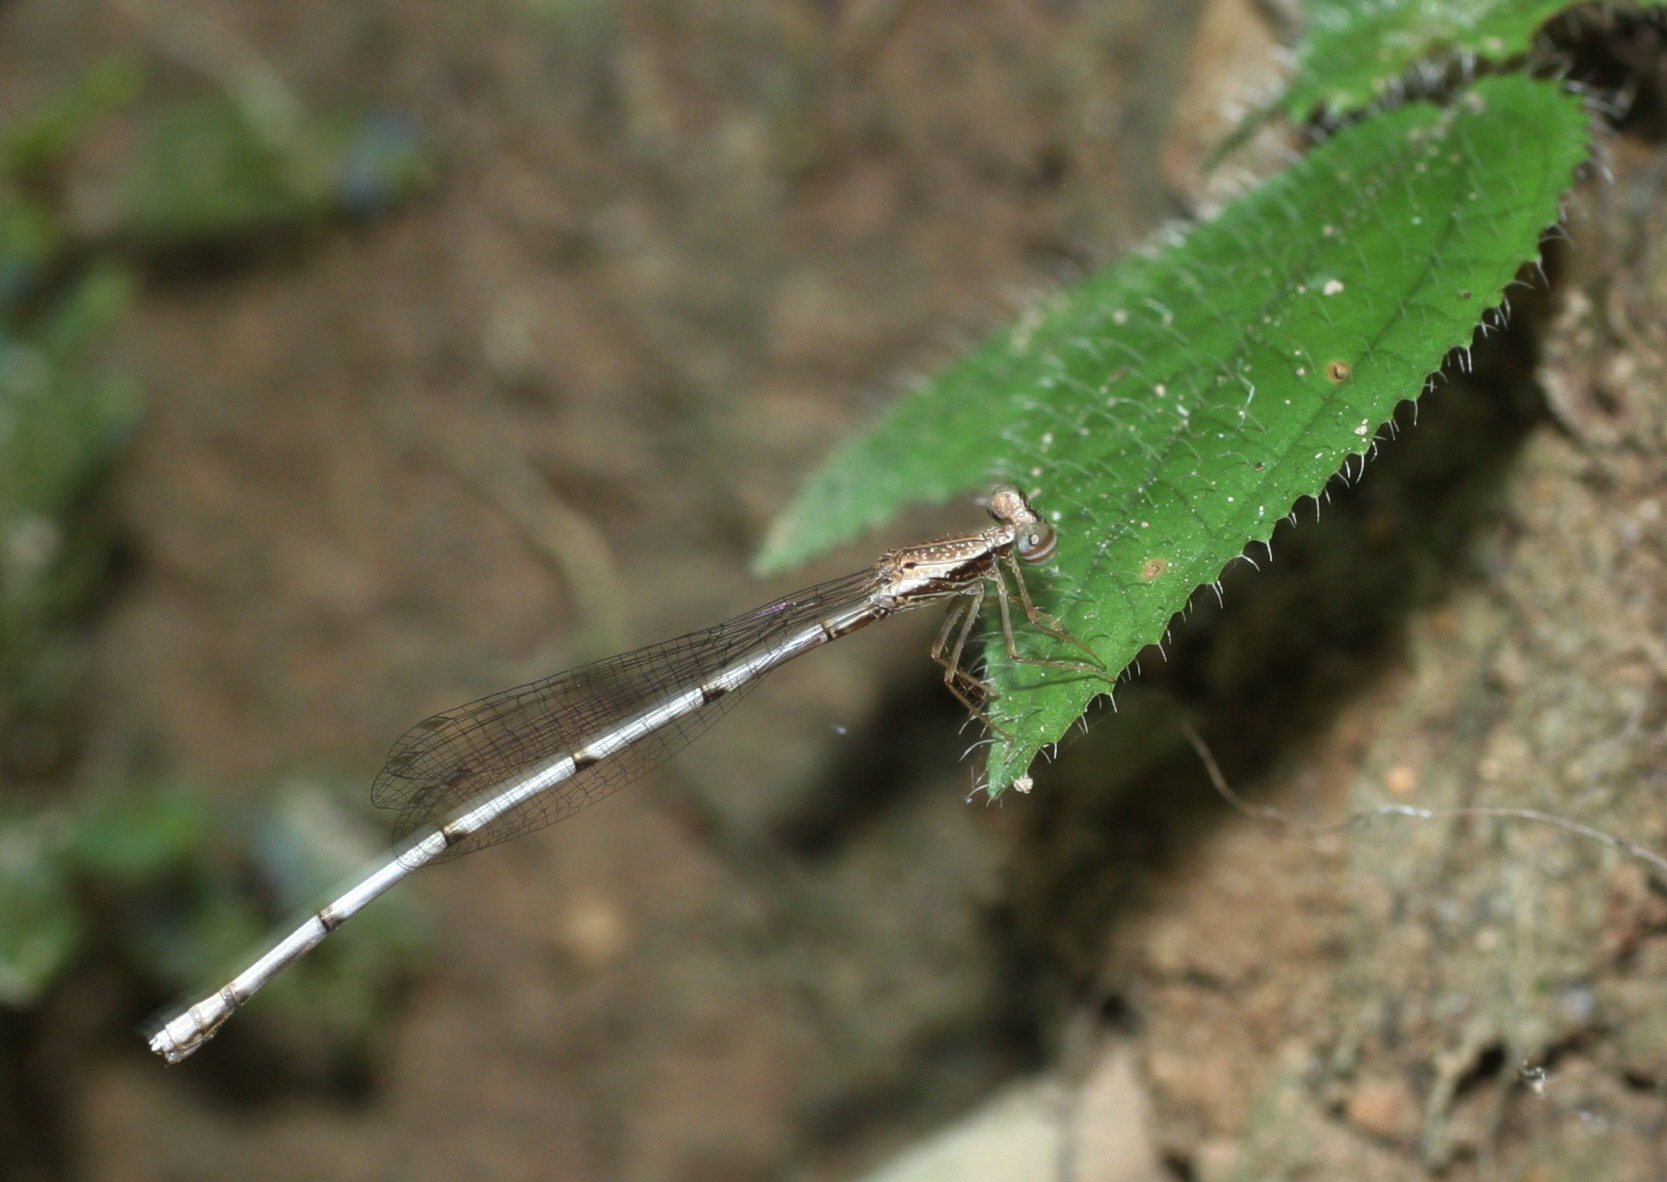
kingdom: Animalia
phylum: Arthropoda
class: Insecta
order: Odonata
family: Platycnemididae
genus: Copera
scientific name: Copera vittata
